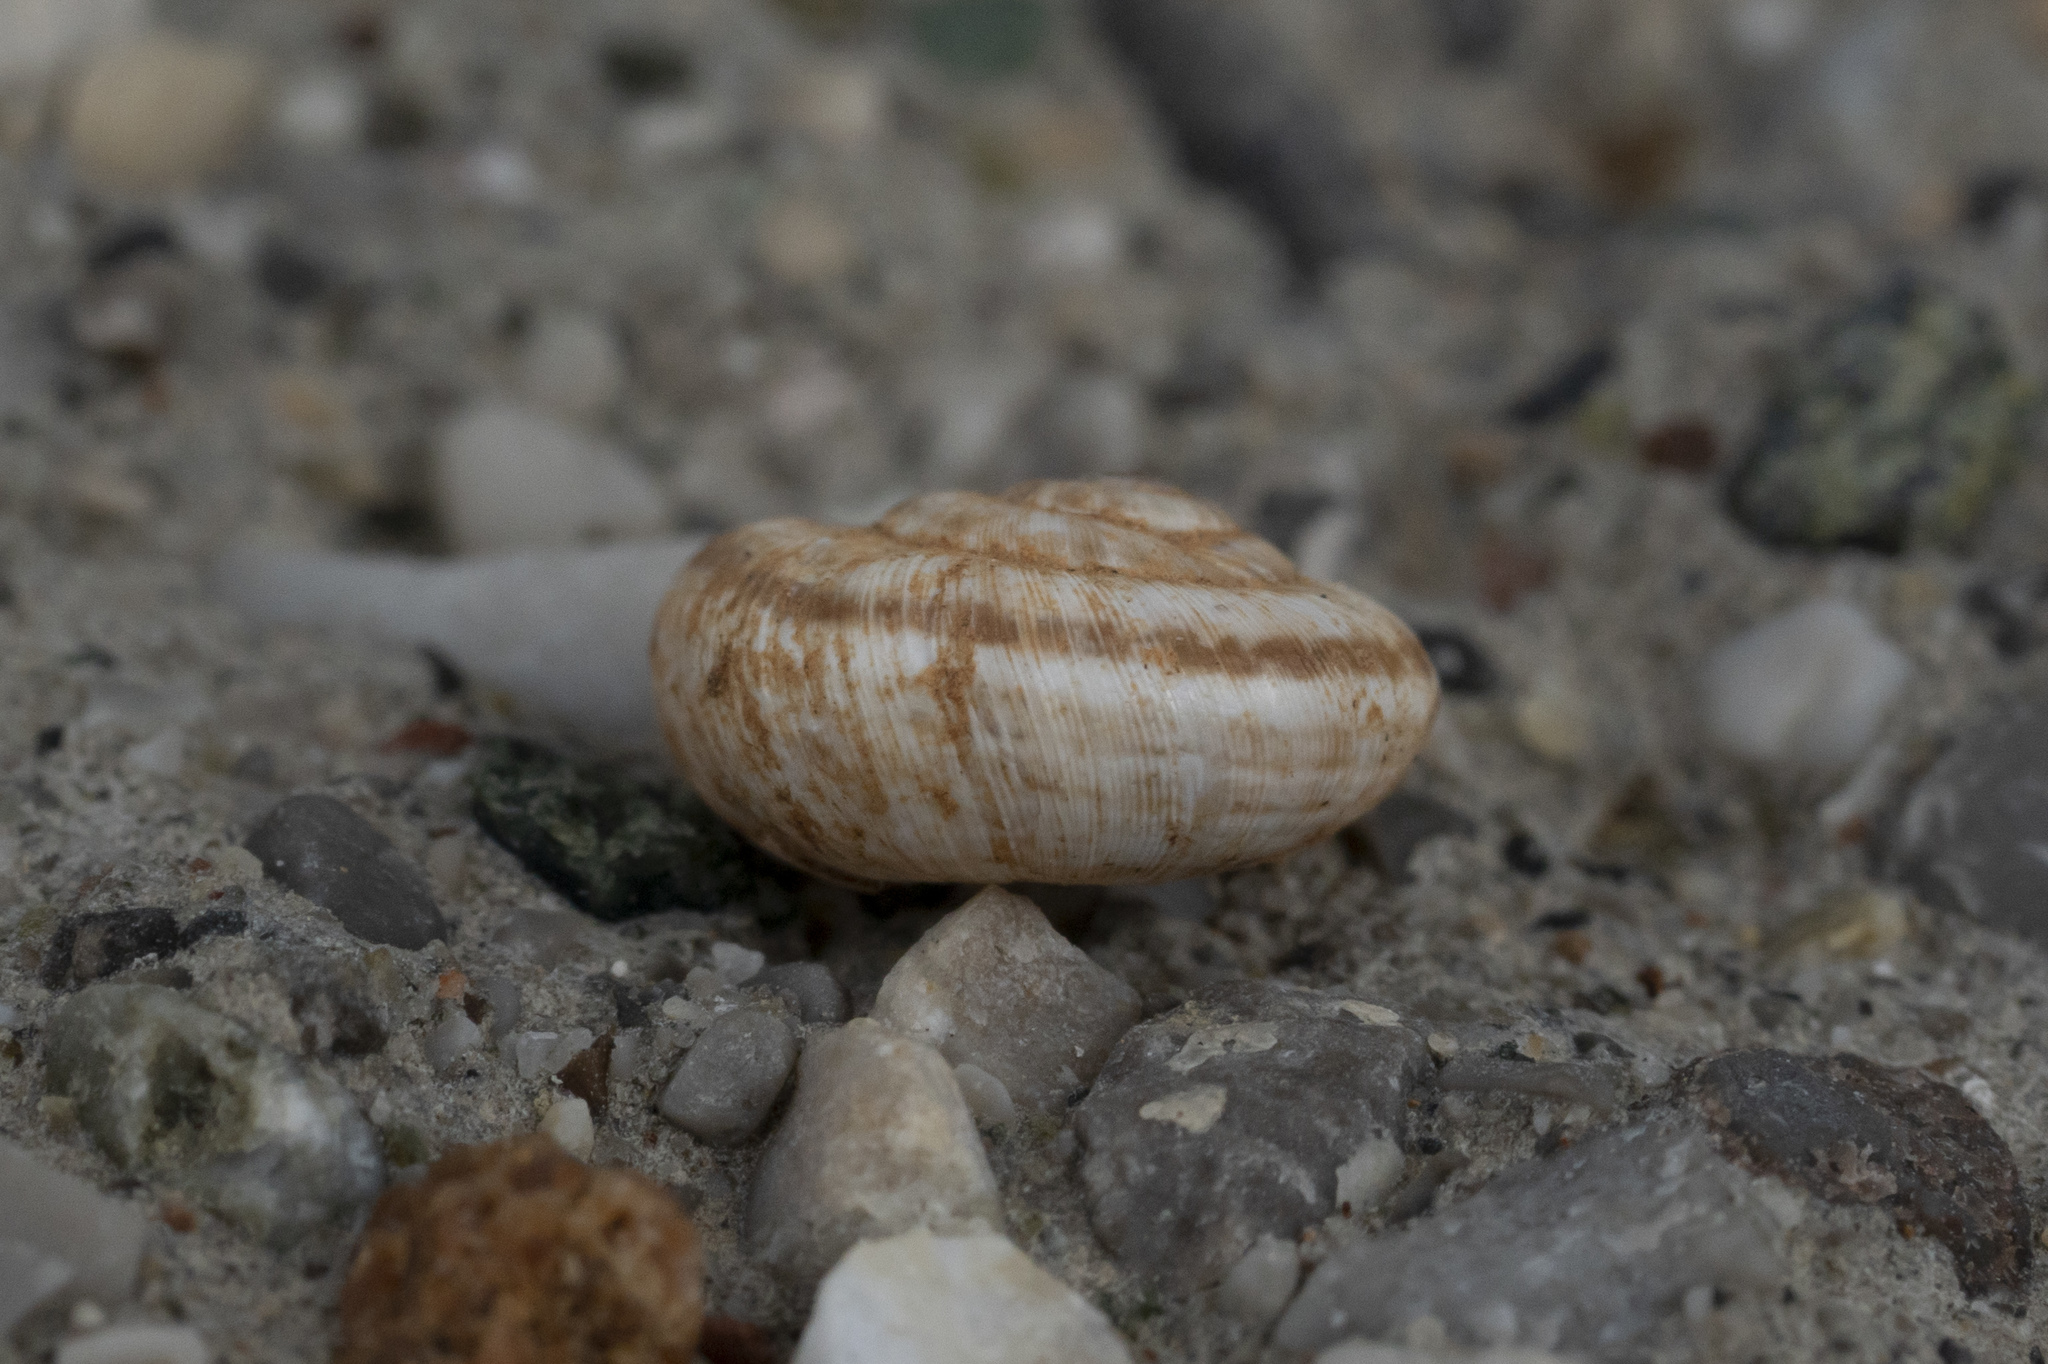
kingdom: Animalia
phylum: Mollusca
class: Gastropoda
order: Stylommatophora
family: Hygromiidae
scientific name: Hygromiidae
